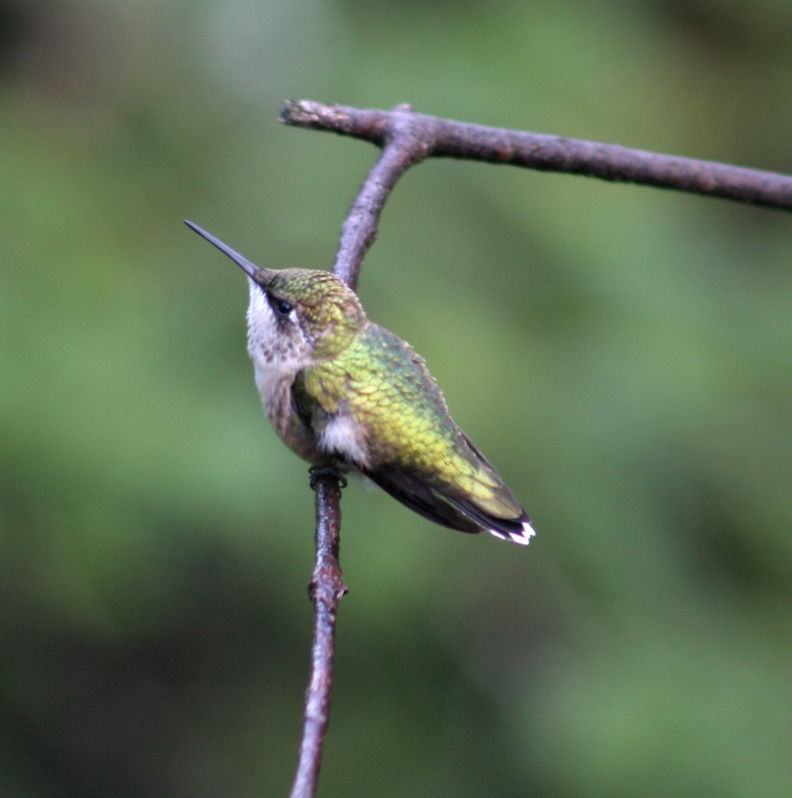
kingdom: Animalia
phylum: Chordata
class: Aves
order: Apodiformes
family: Trochilidae
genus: Archilochus
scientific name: Archilochus colubris
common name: Ruby-throated hummingbird
